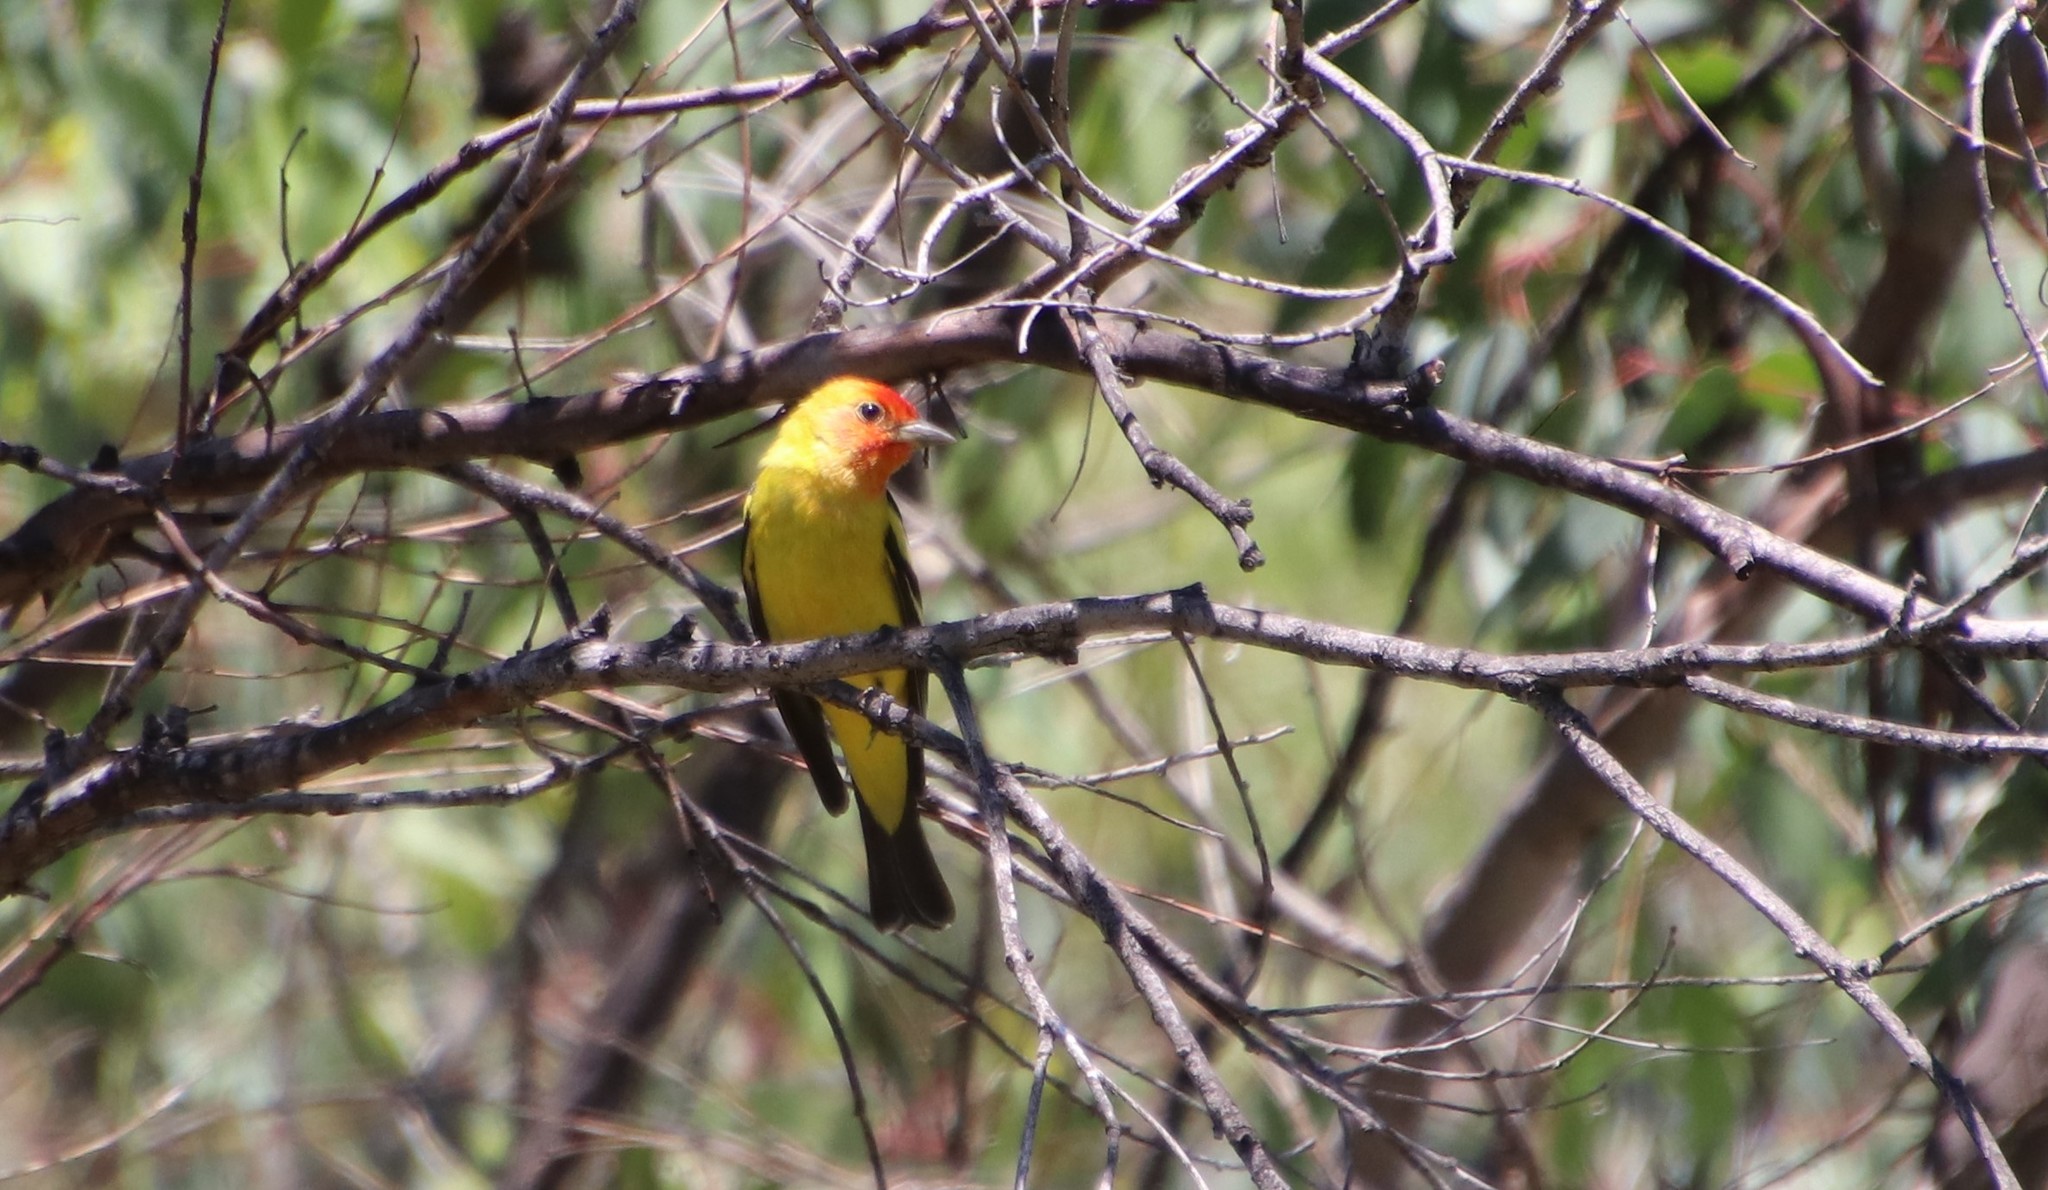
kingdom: Animalia
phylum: Chordata
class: Aves
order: Passeriformes
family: Cardinalidae
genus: Piranga
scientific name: Piranga ludoviciana
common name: Western tanager
